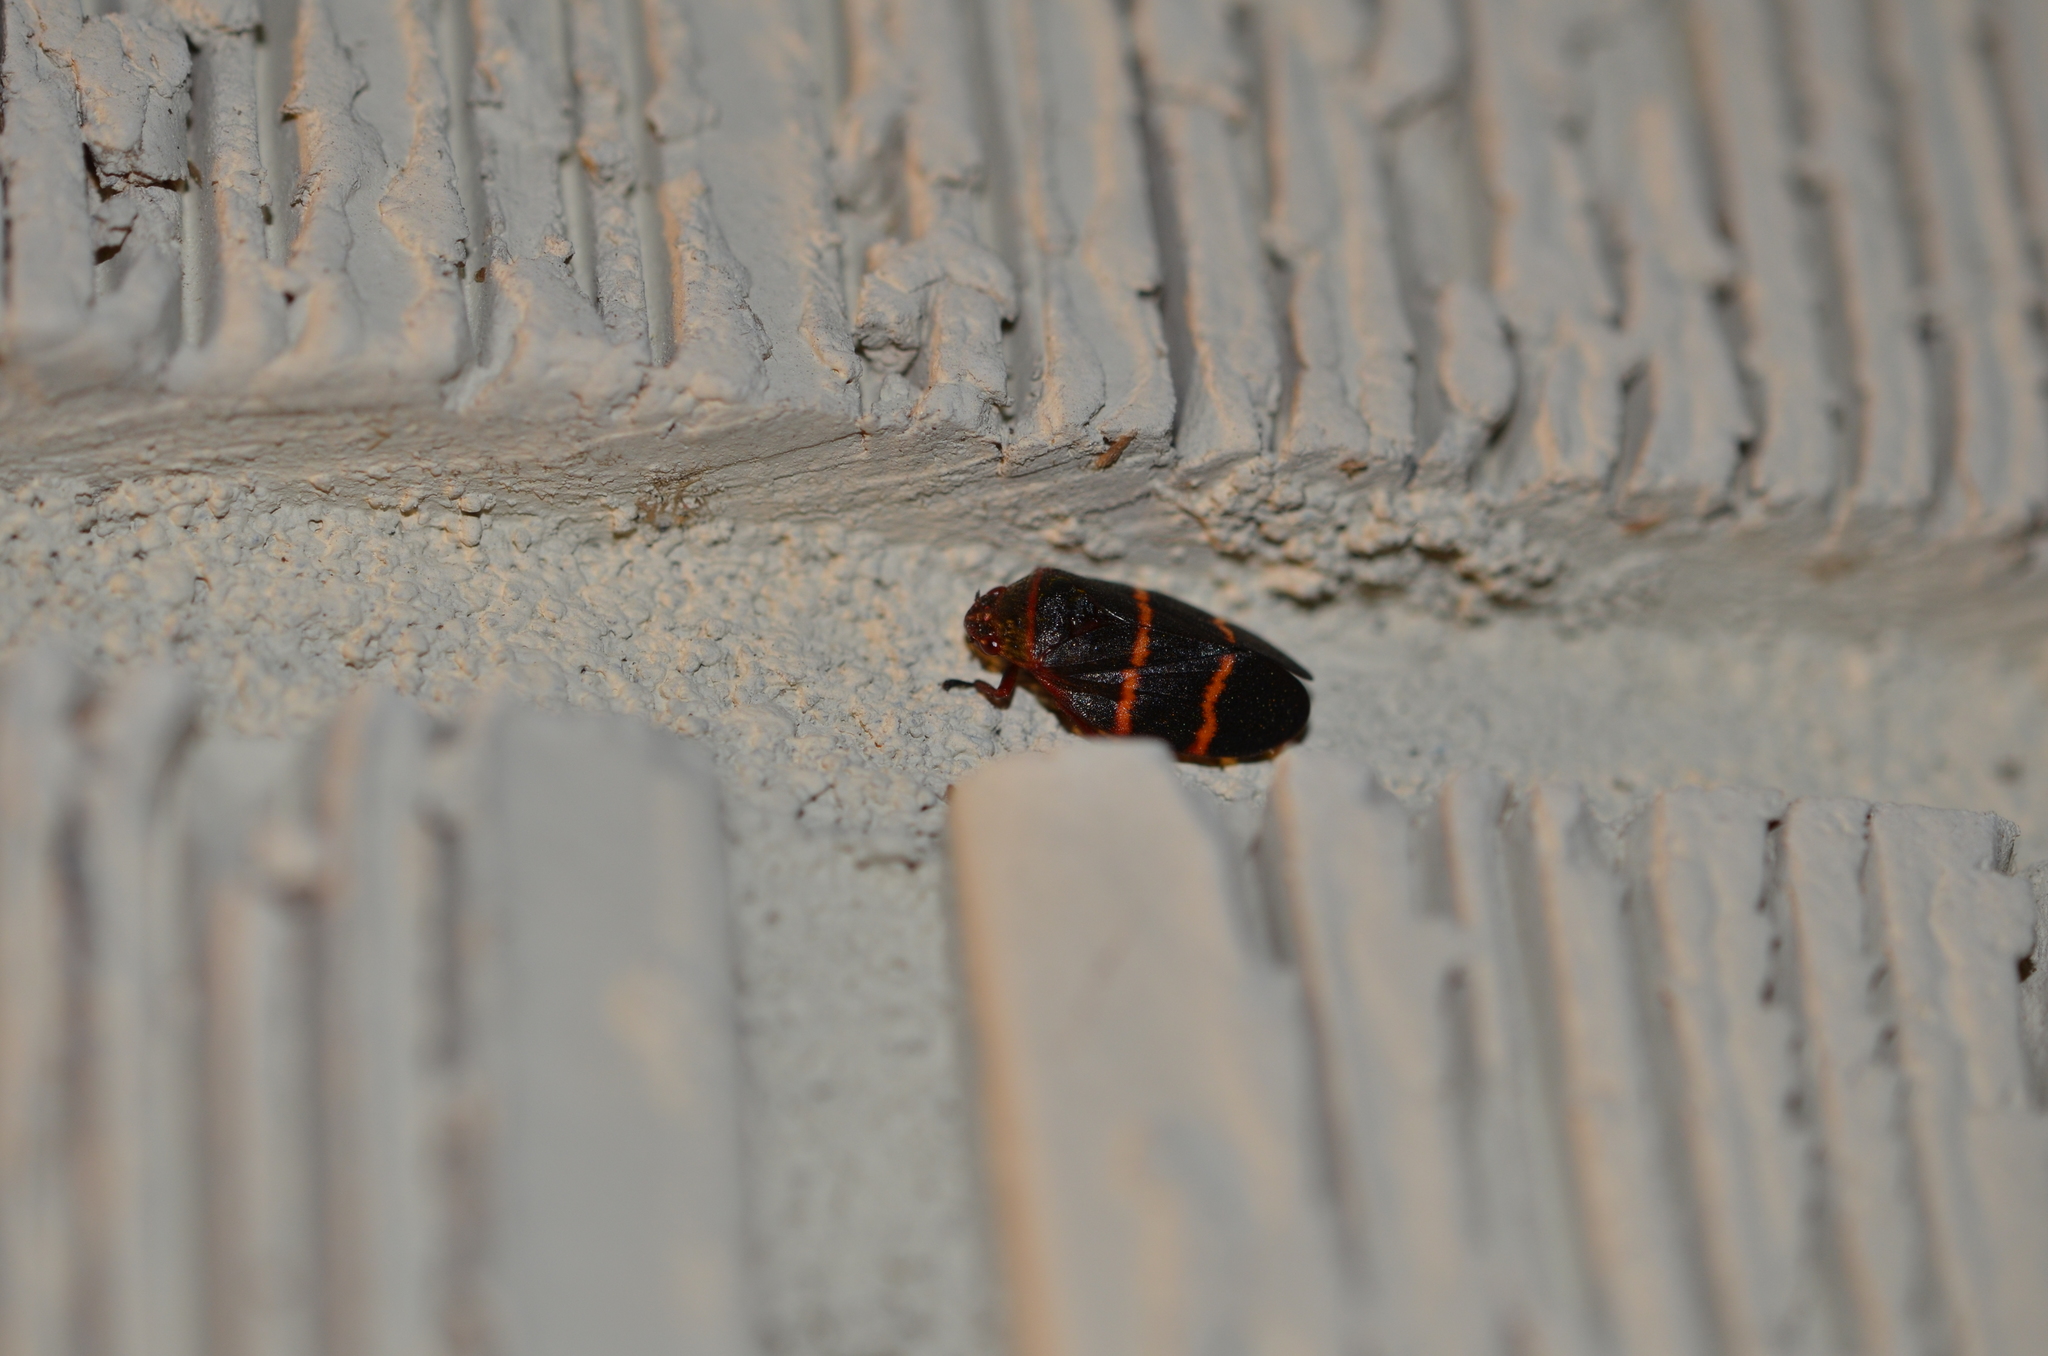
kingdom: Animalia
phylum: Arthropoda
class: Insecta
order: Hemiptera
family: Cercopidae
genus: Prosapia
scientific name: Prosapia bicincta
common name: Twolined spittlebug
